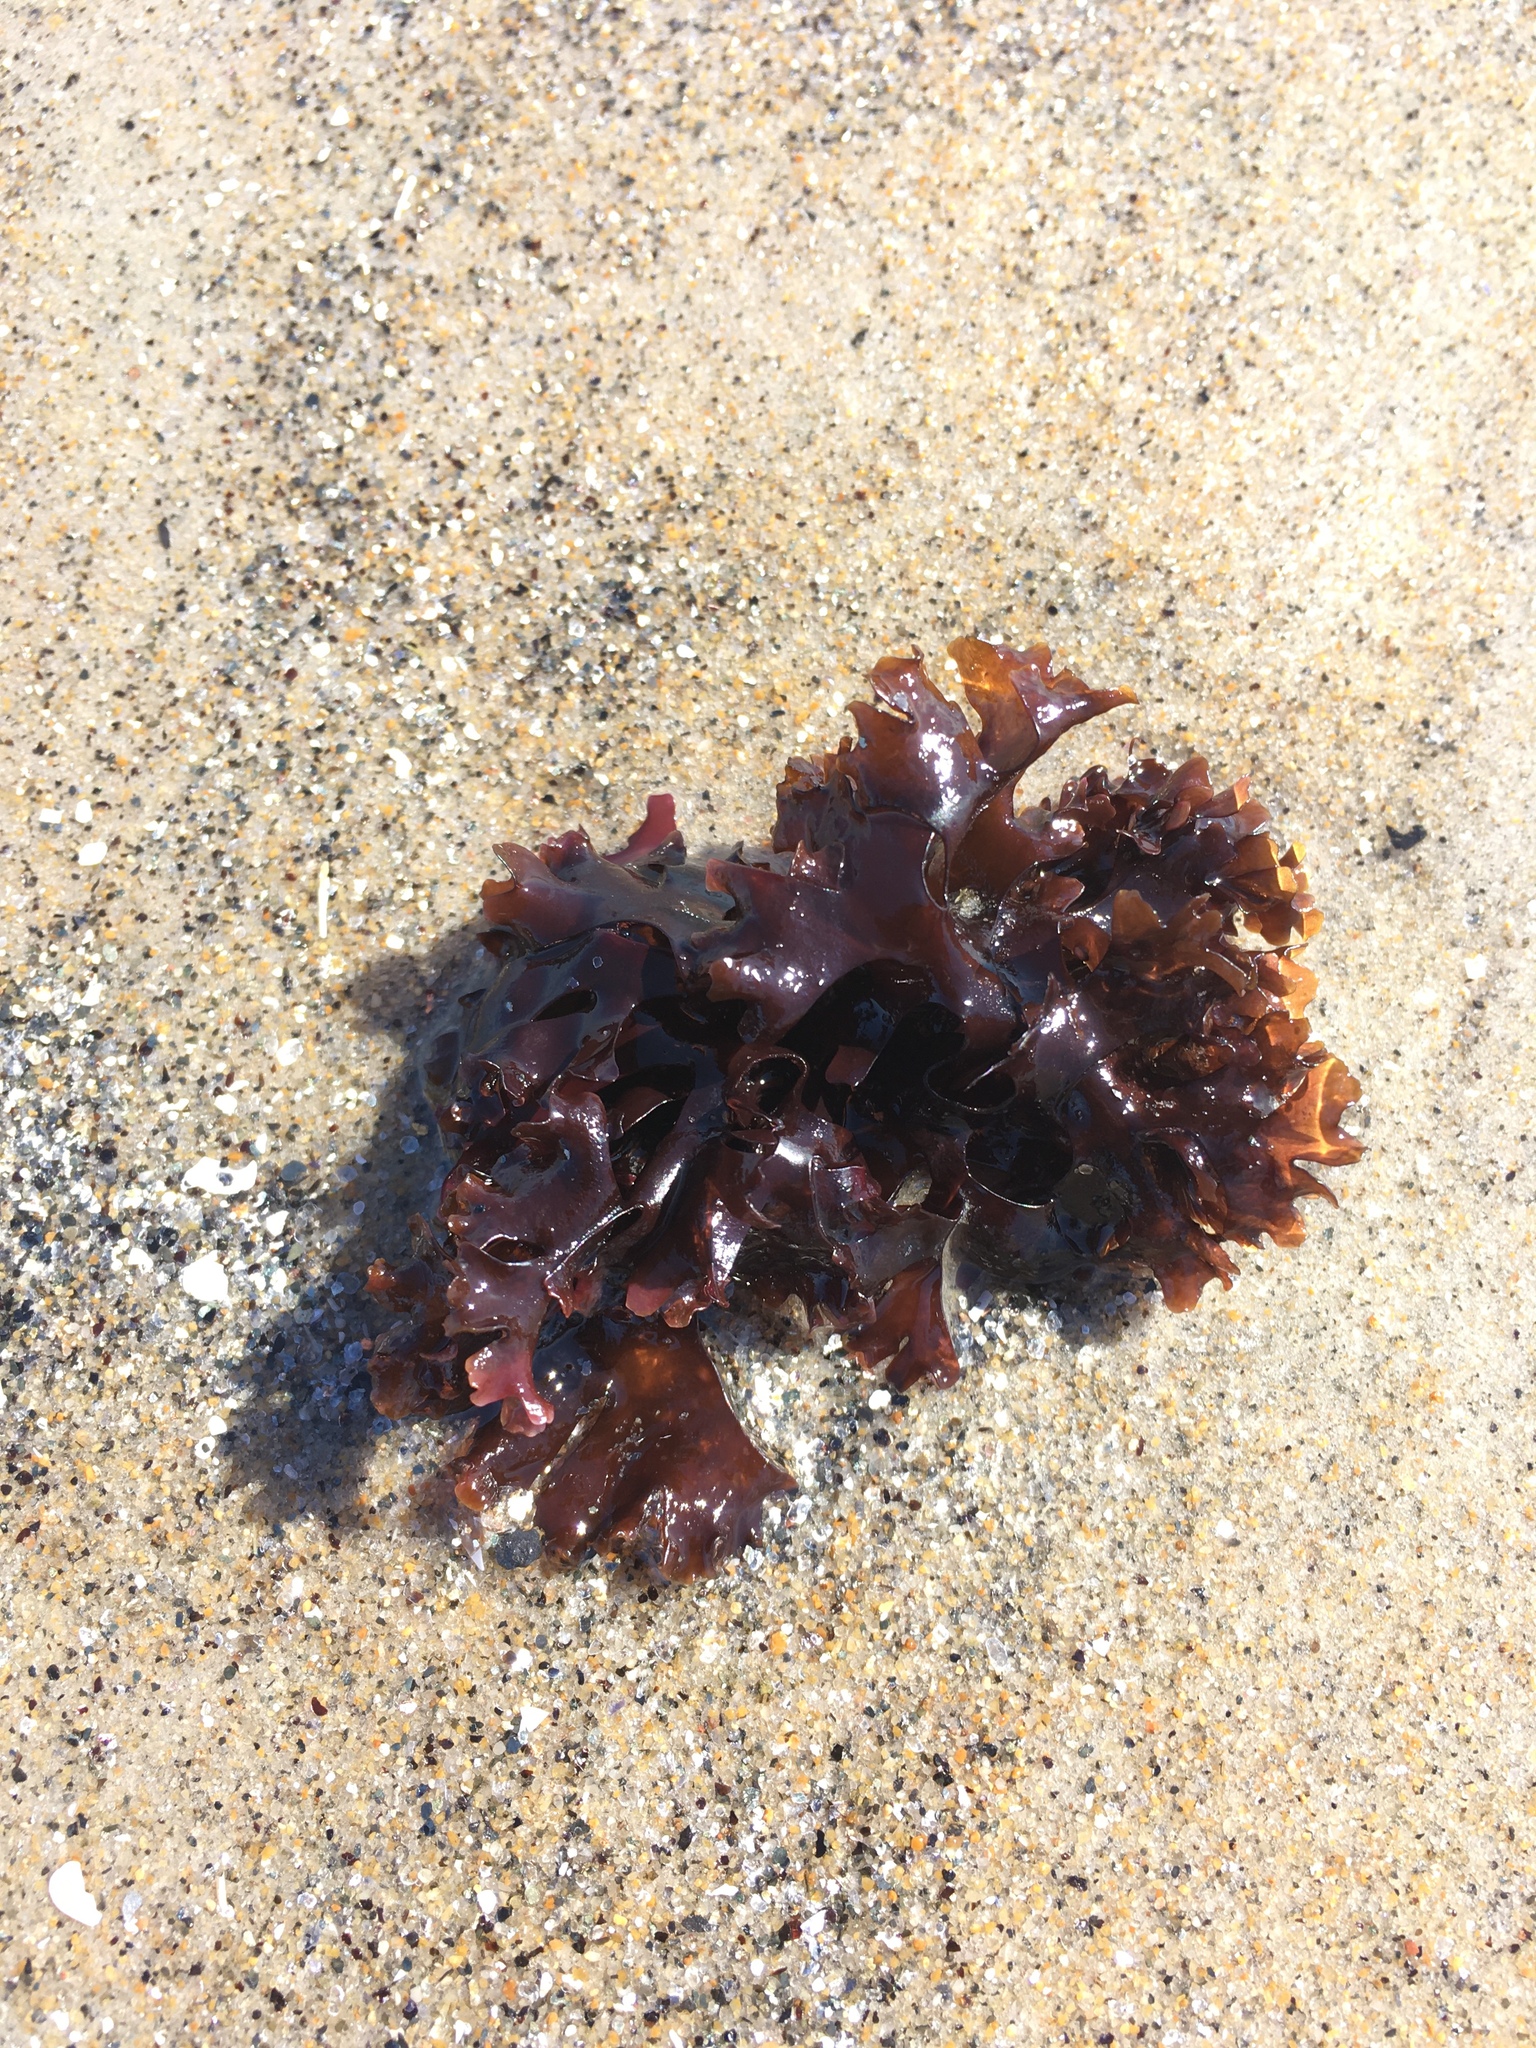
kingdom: Plantae
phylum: Rhodophyta
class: Florideophyceae
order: Gigartinales
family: Gigartinaceae
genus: Chondrus
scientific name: Chondrus crispus
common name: Carrageen
